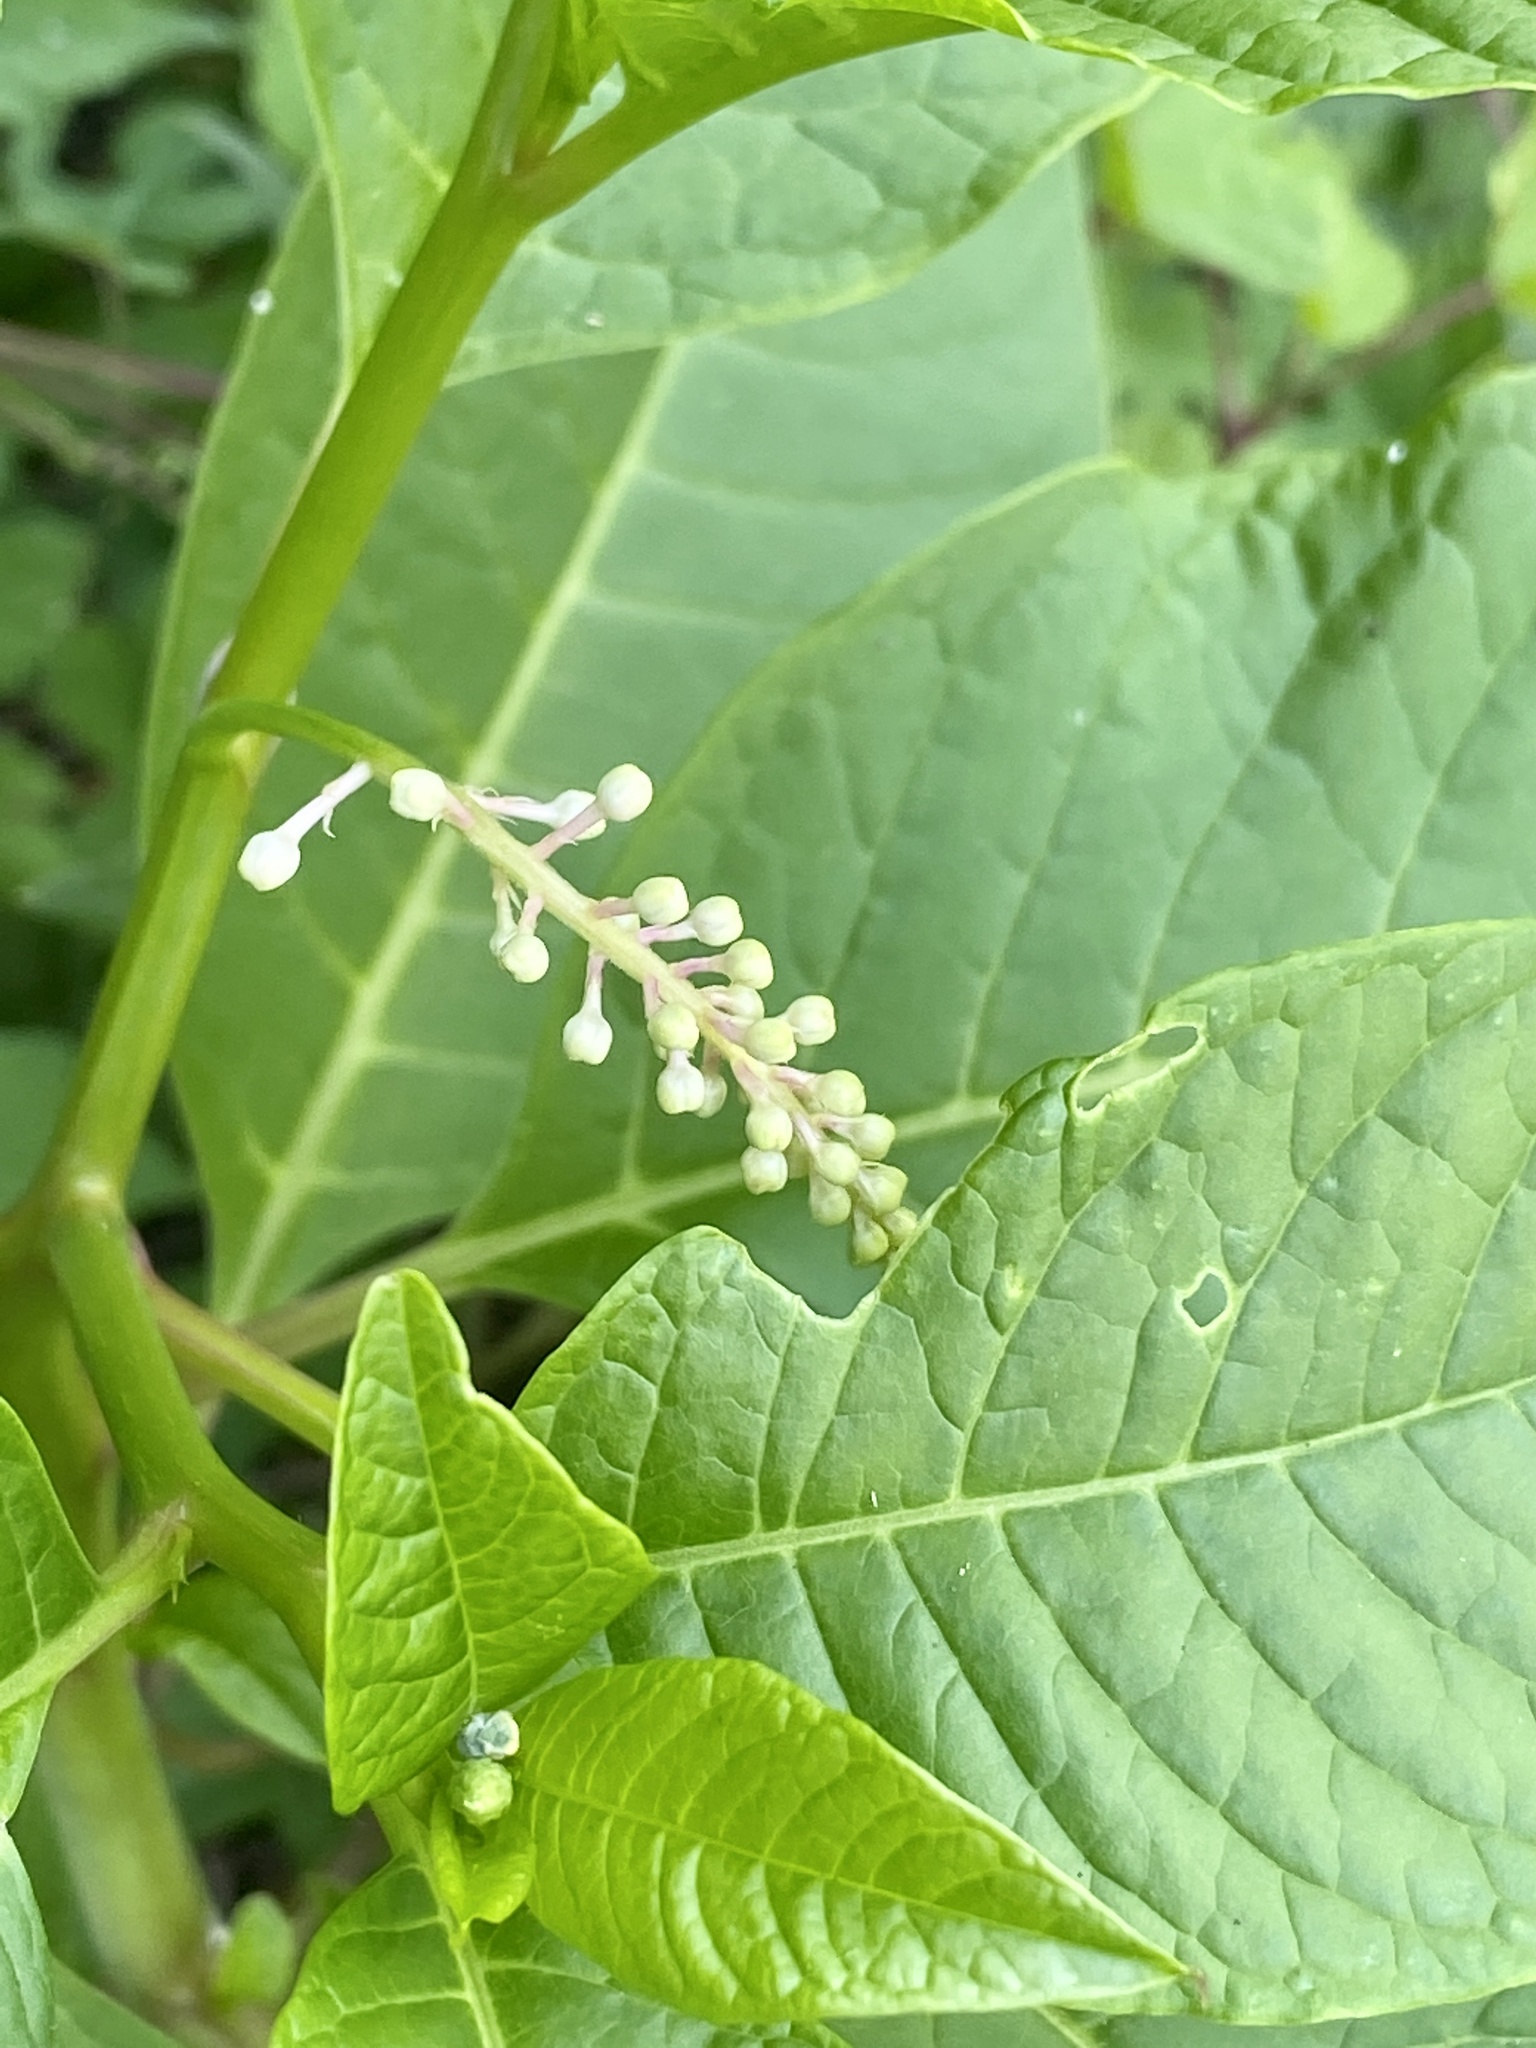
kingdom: Plantae
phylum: Tracheophyta
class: Magnoliopsida
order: Caryophyllales
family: Phytolaccaceae
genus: Phytolacca
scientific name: Phytolacca americana
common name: American pokeweed
